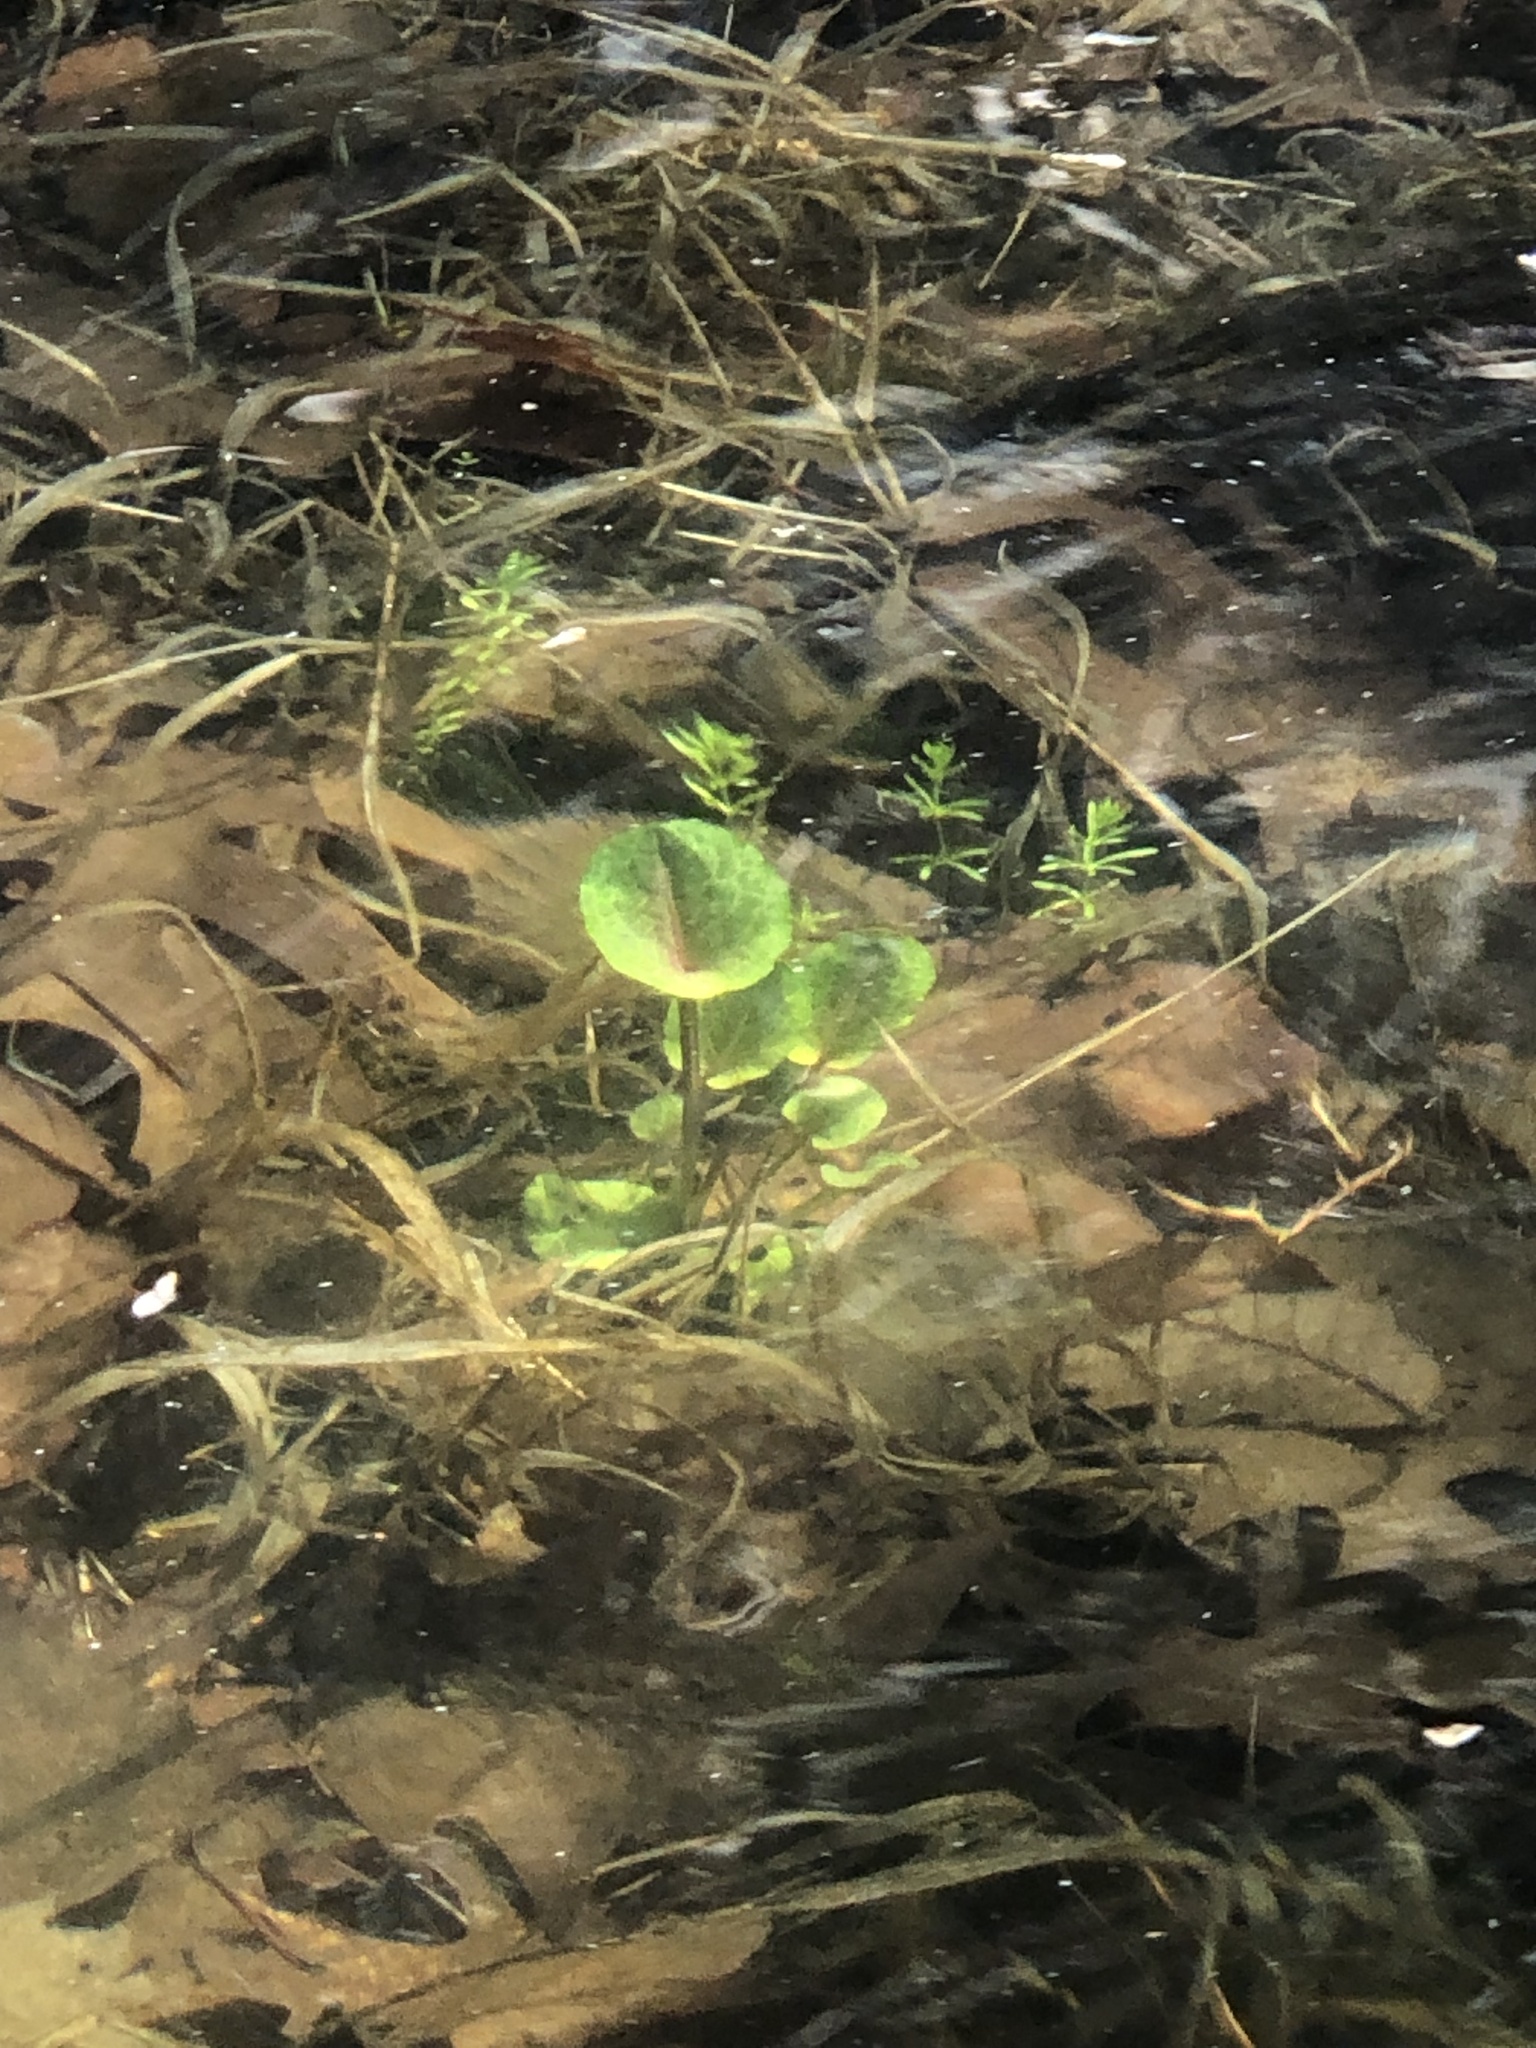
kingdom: Plantae
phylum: Tracheophyta
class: Magnoliopsida
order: Ranunculales
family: Ranunculaceae
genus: Caltha
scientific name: Caltha palustris
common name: Marsh marigold
